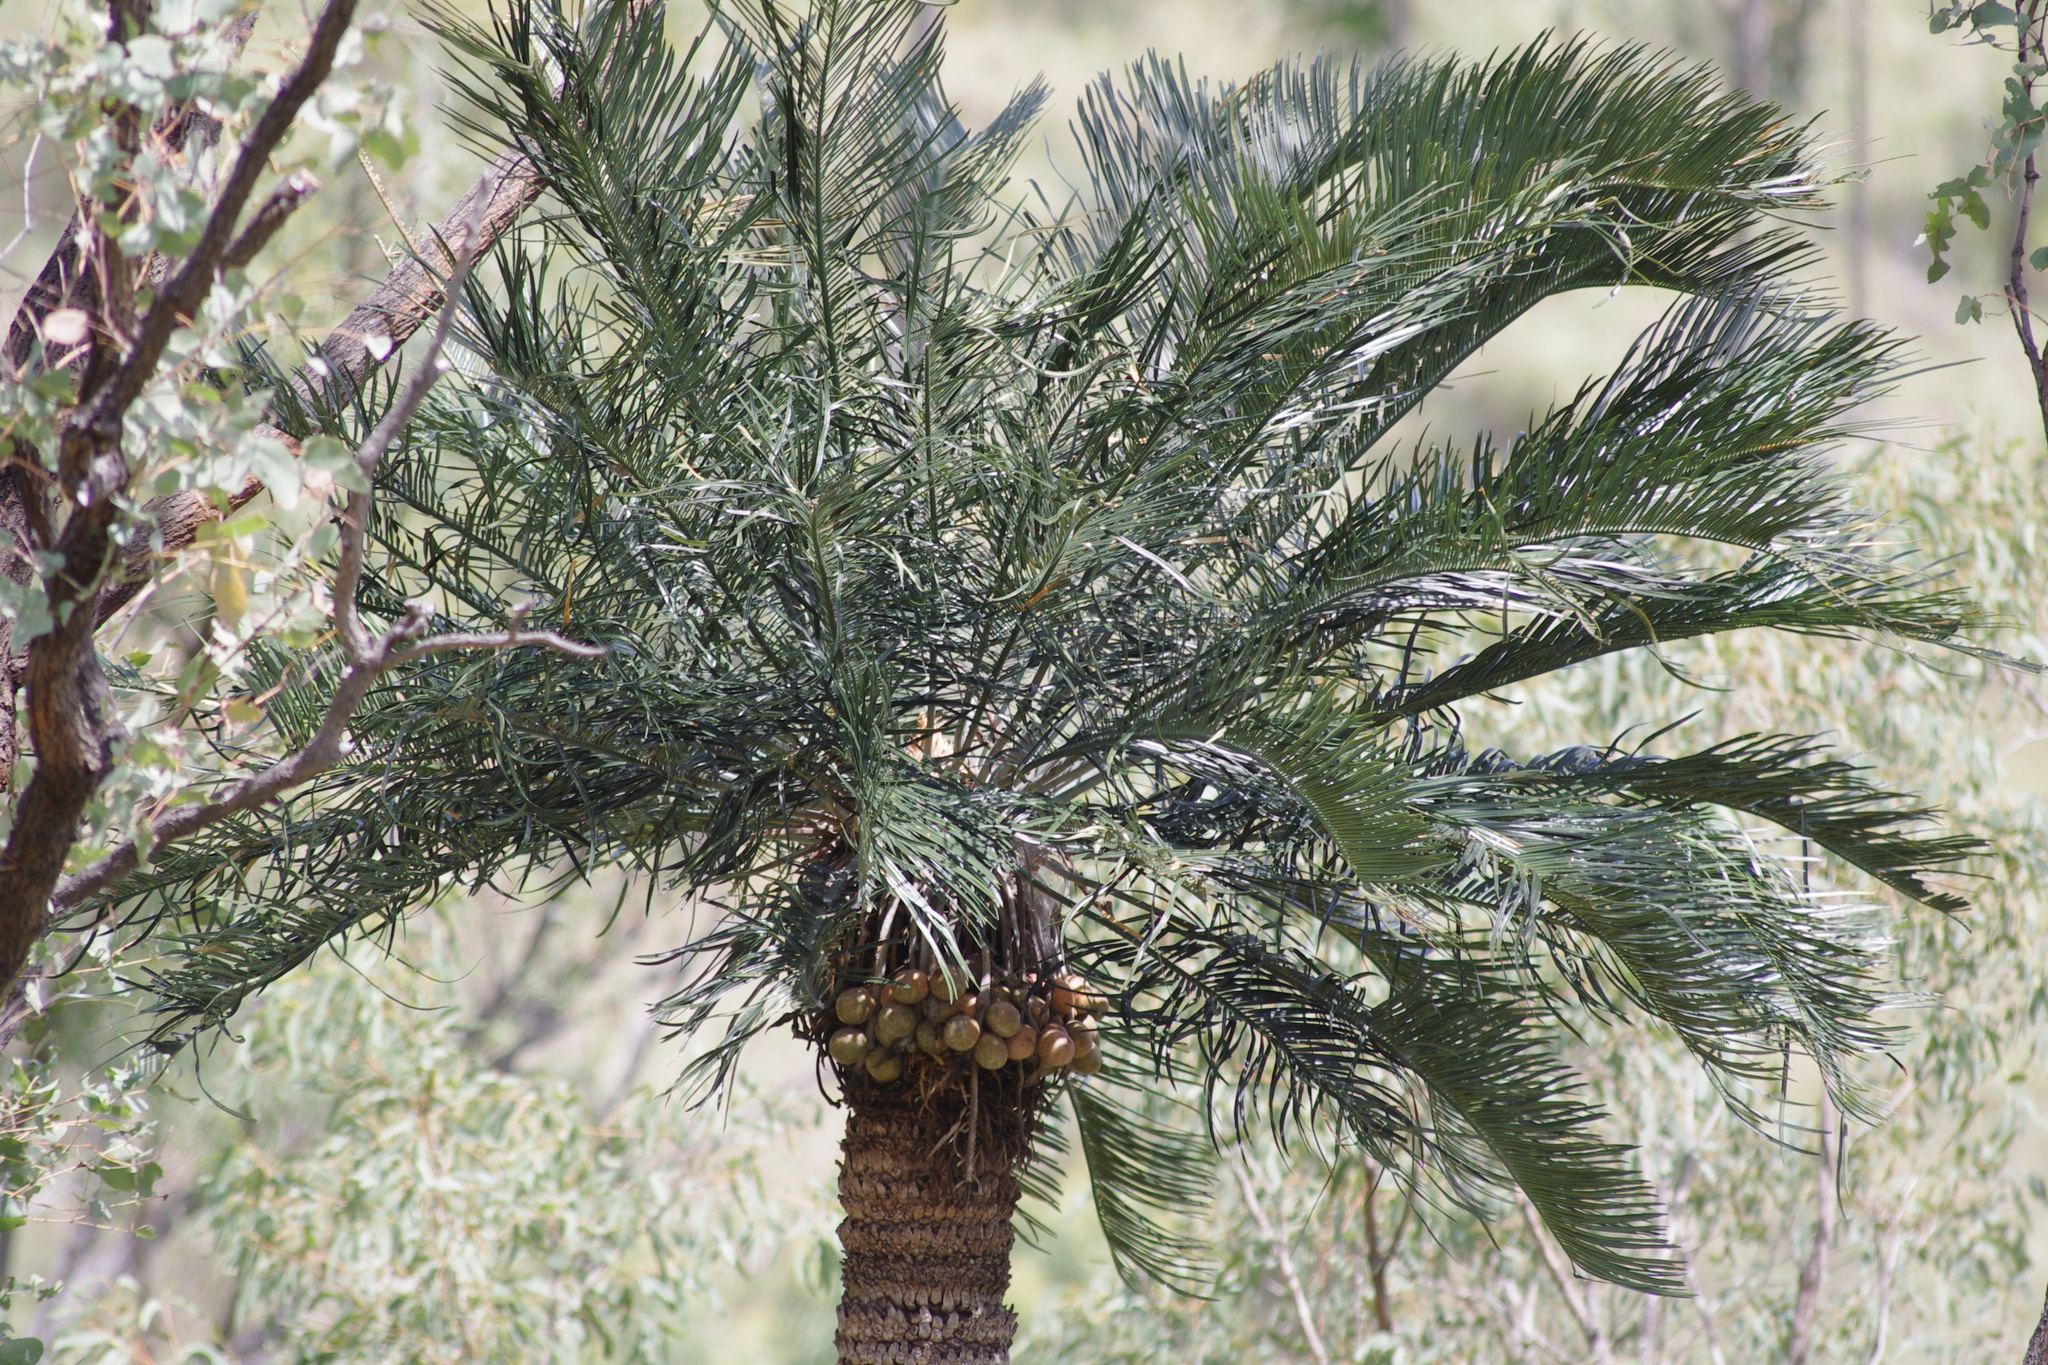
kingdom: Plantae
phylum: Tracheophyta
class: Cycadopsida
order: Cycadales
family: Cycadaceae
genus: Cycas
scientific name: Cycas megacarpa
